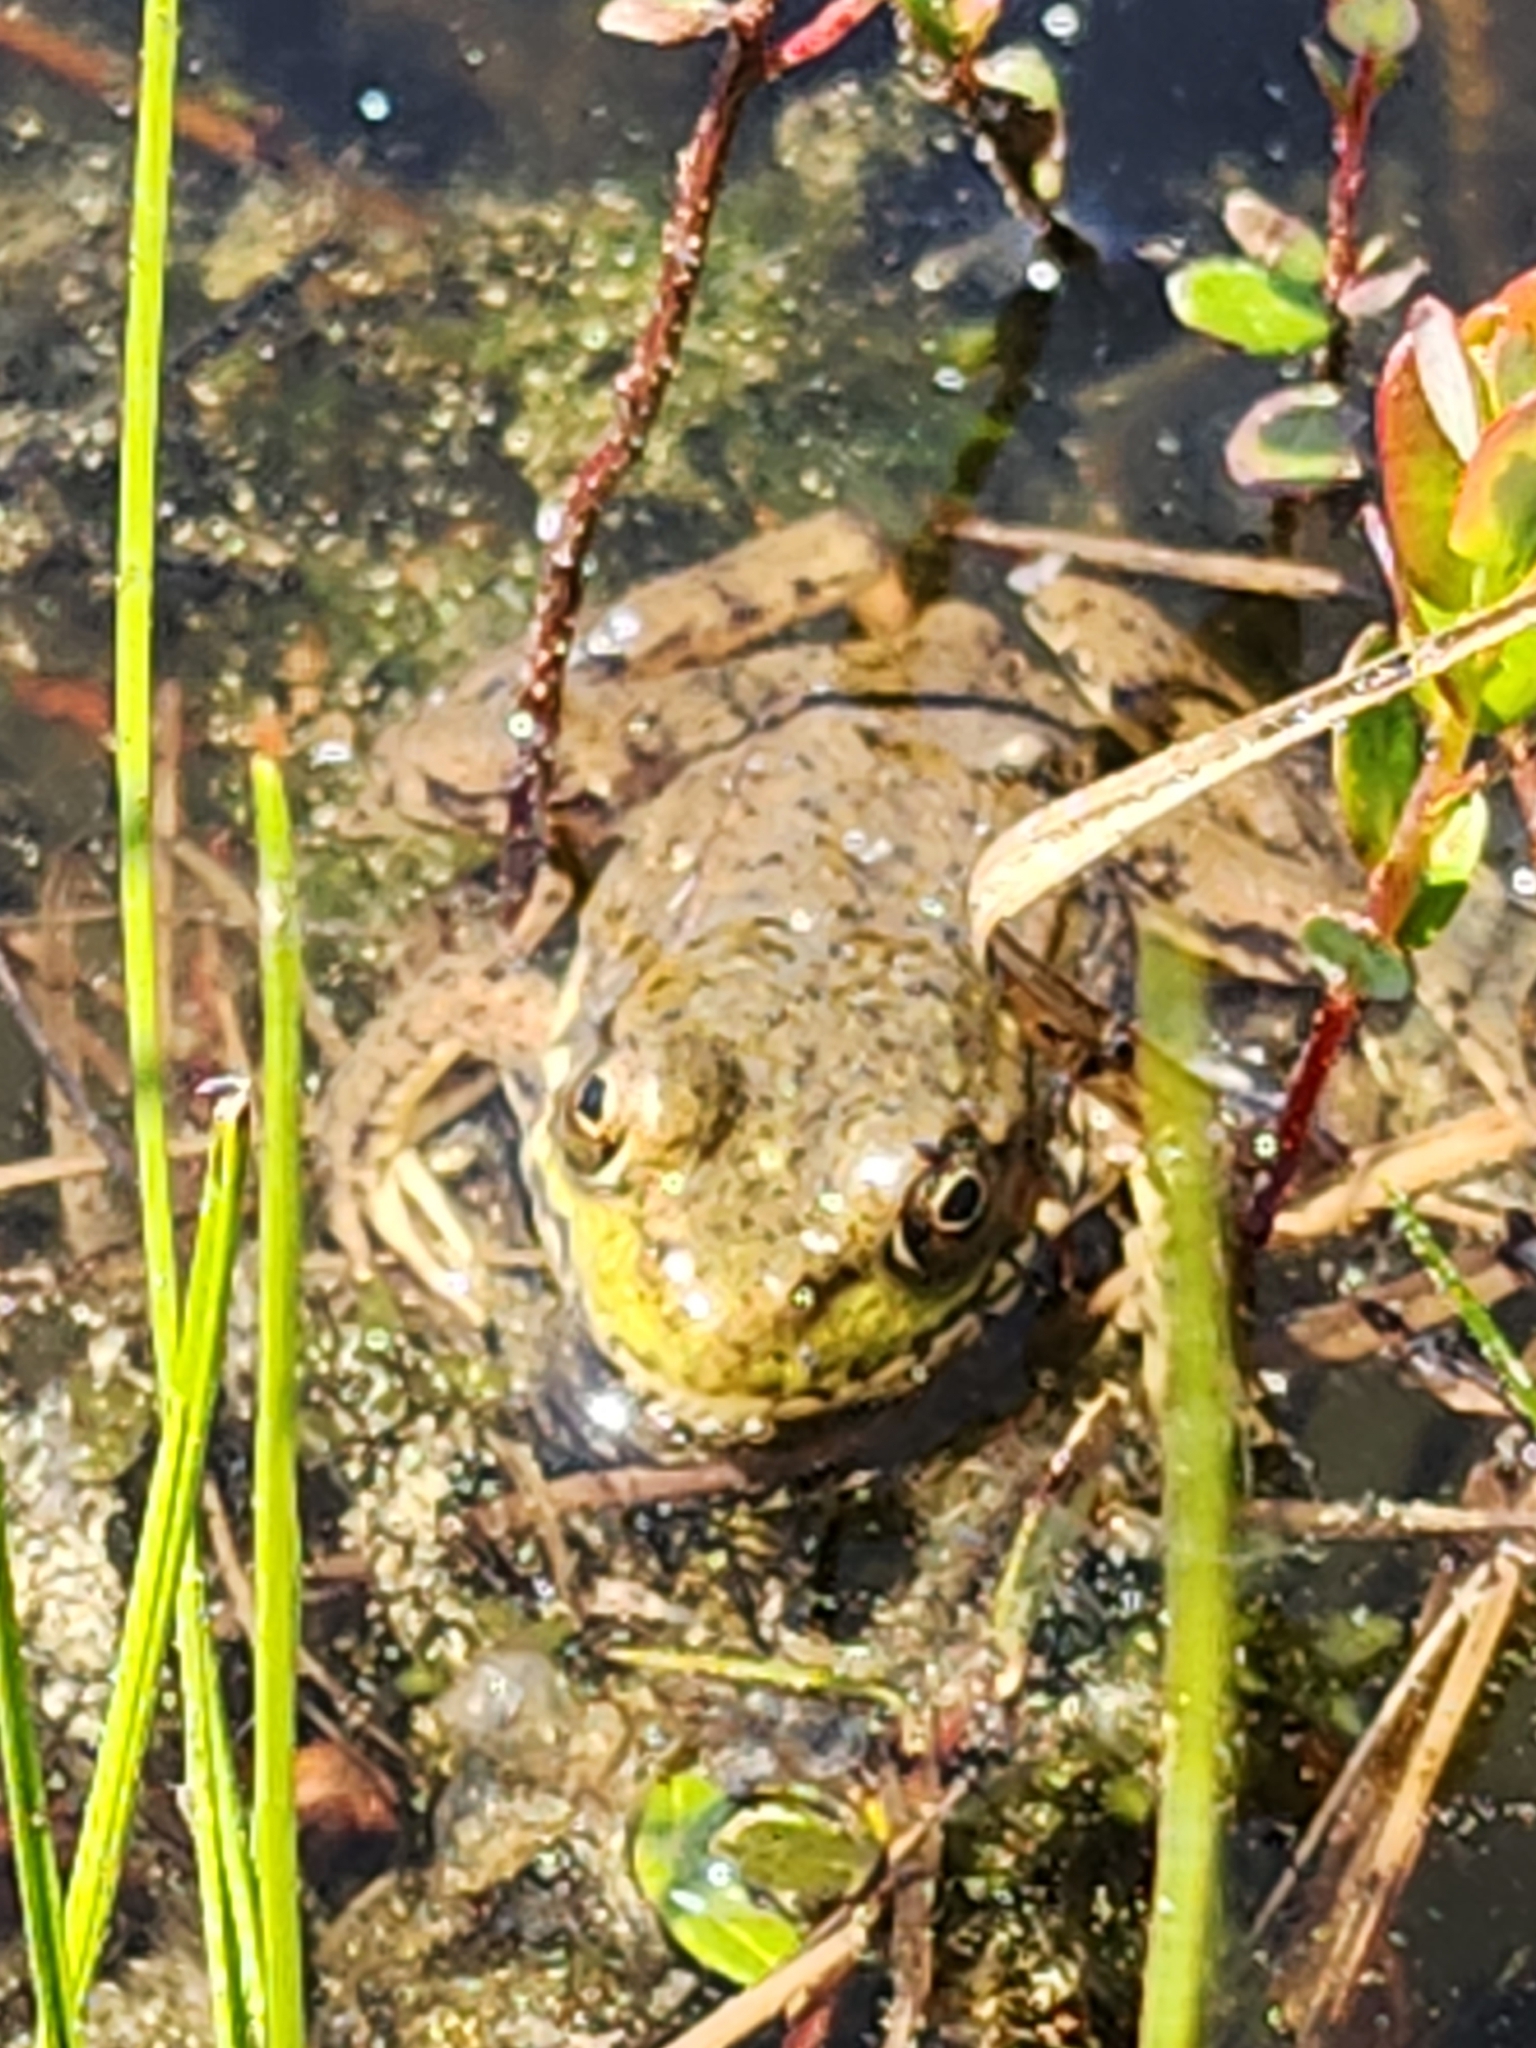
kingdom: Animalia
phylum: Chordata
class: Amphibia
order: Anura
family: Ranidae
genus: Lithobates
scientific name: Lithobates clamitans
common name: Green frog
